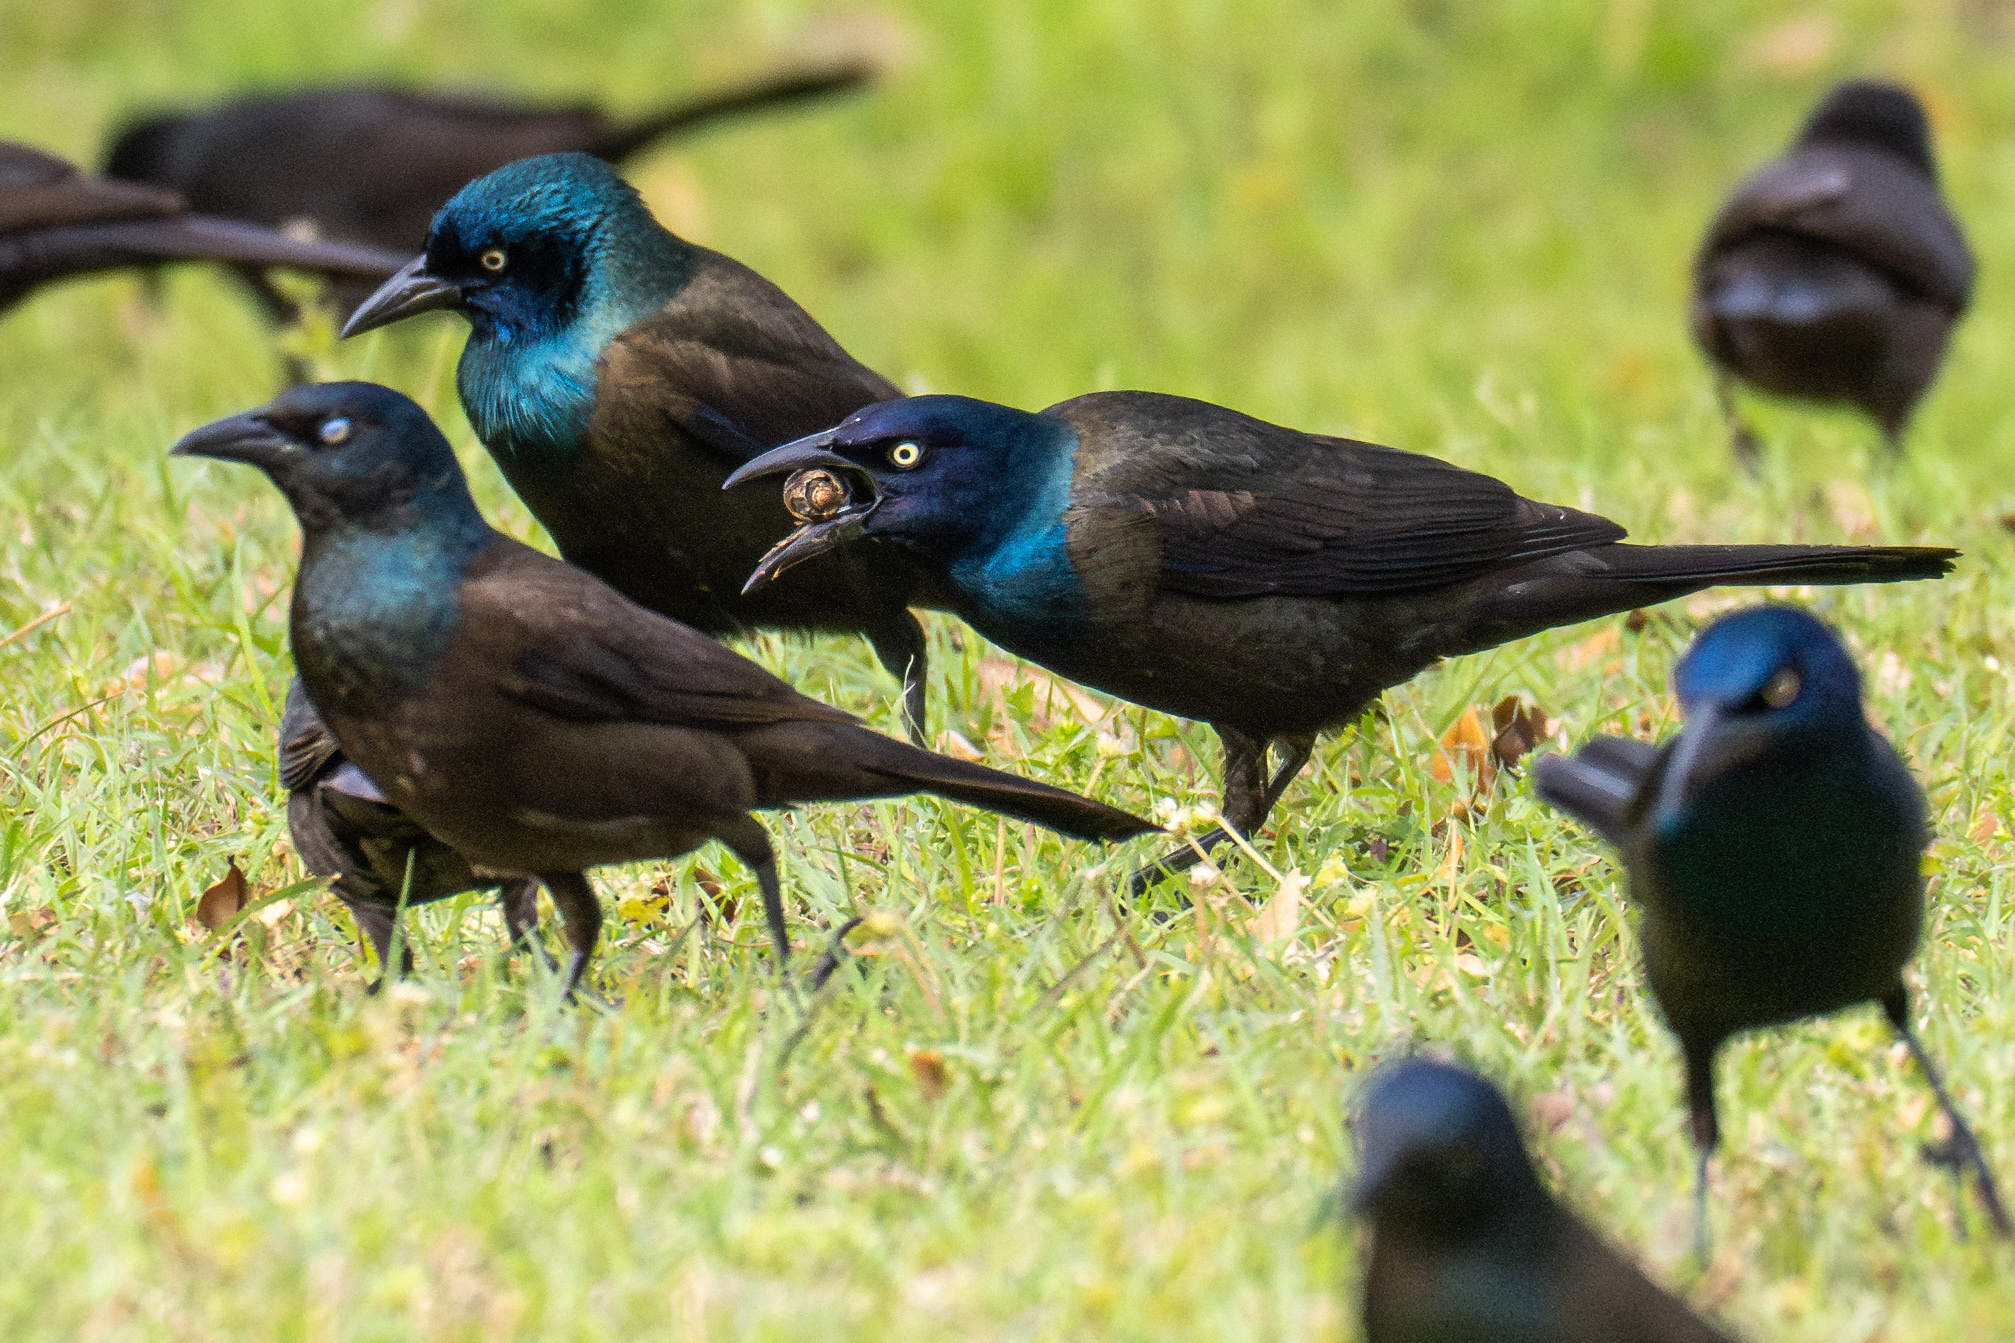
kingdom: Animalia
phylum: Chordata
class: Aves
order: Passeriformes
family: Icteridae
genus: Quiscalus
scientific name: Quiscalus quiscula
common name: Common grackle
